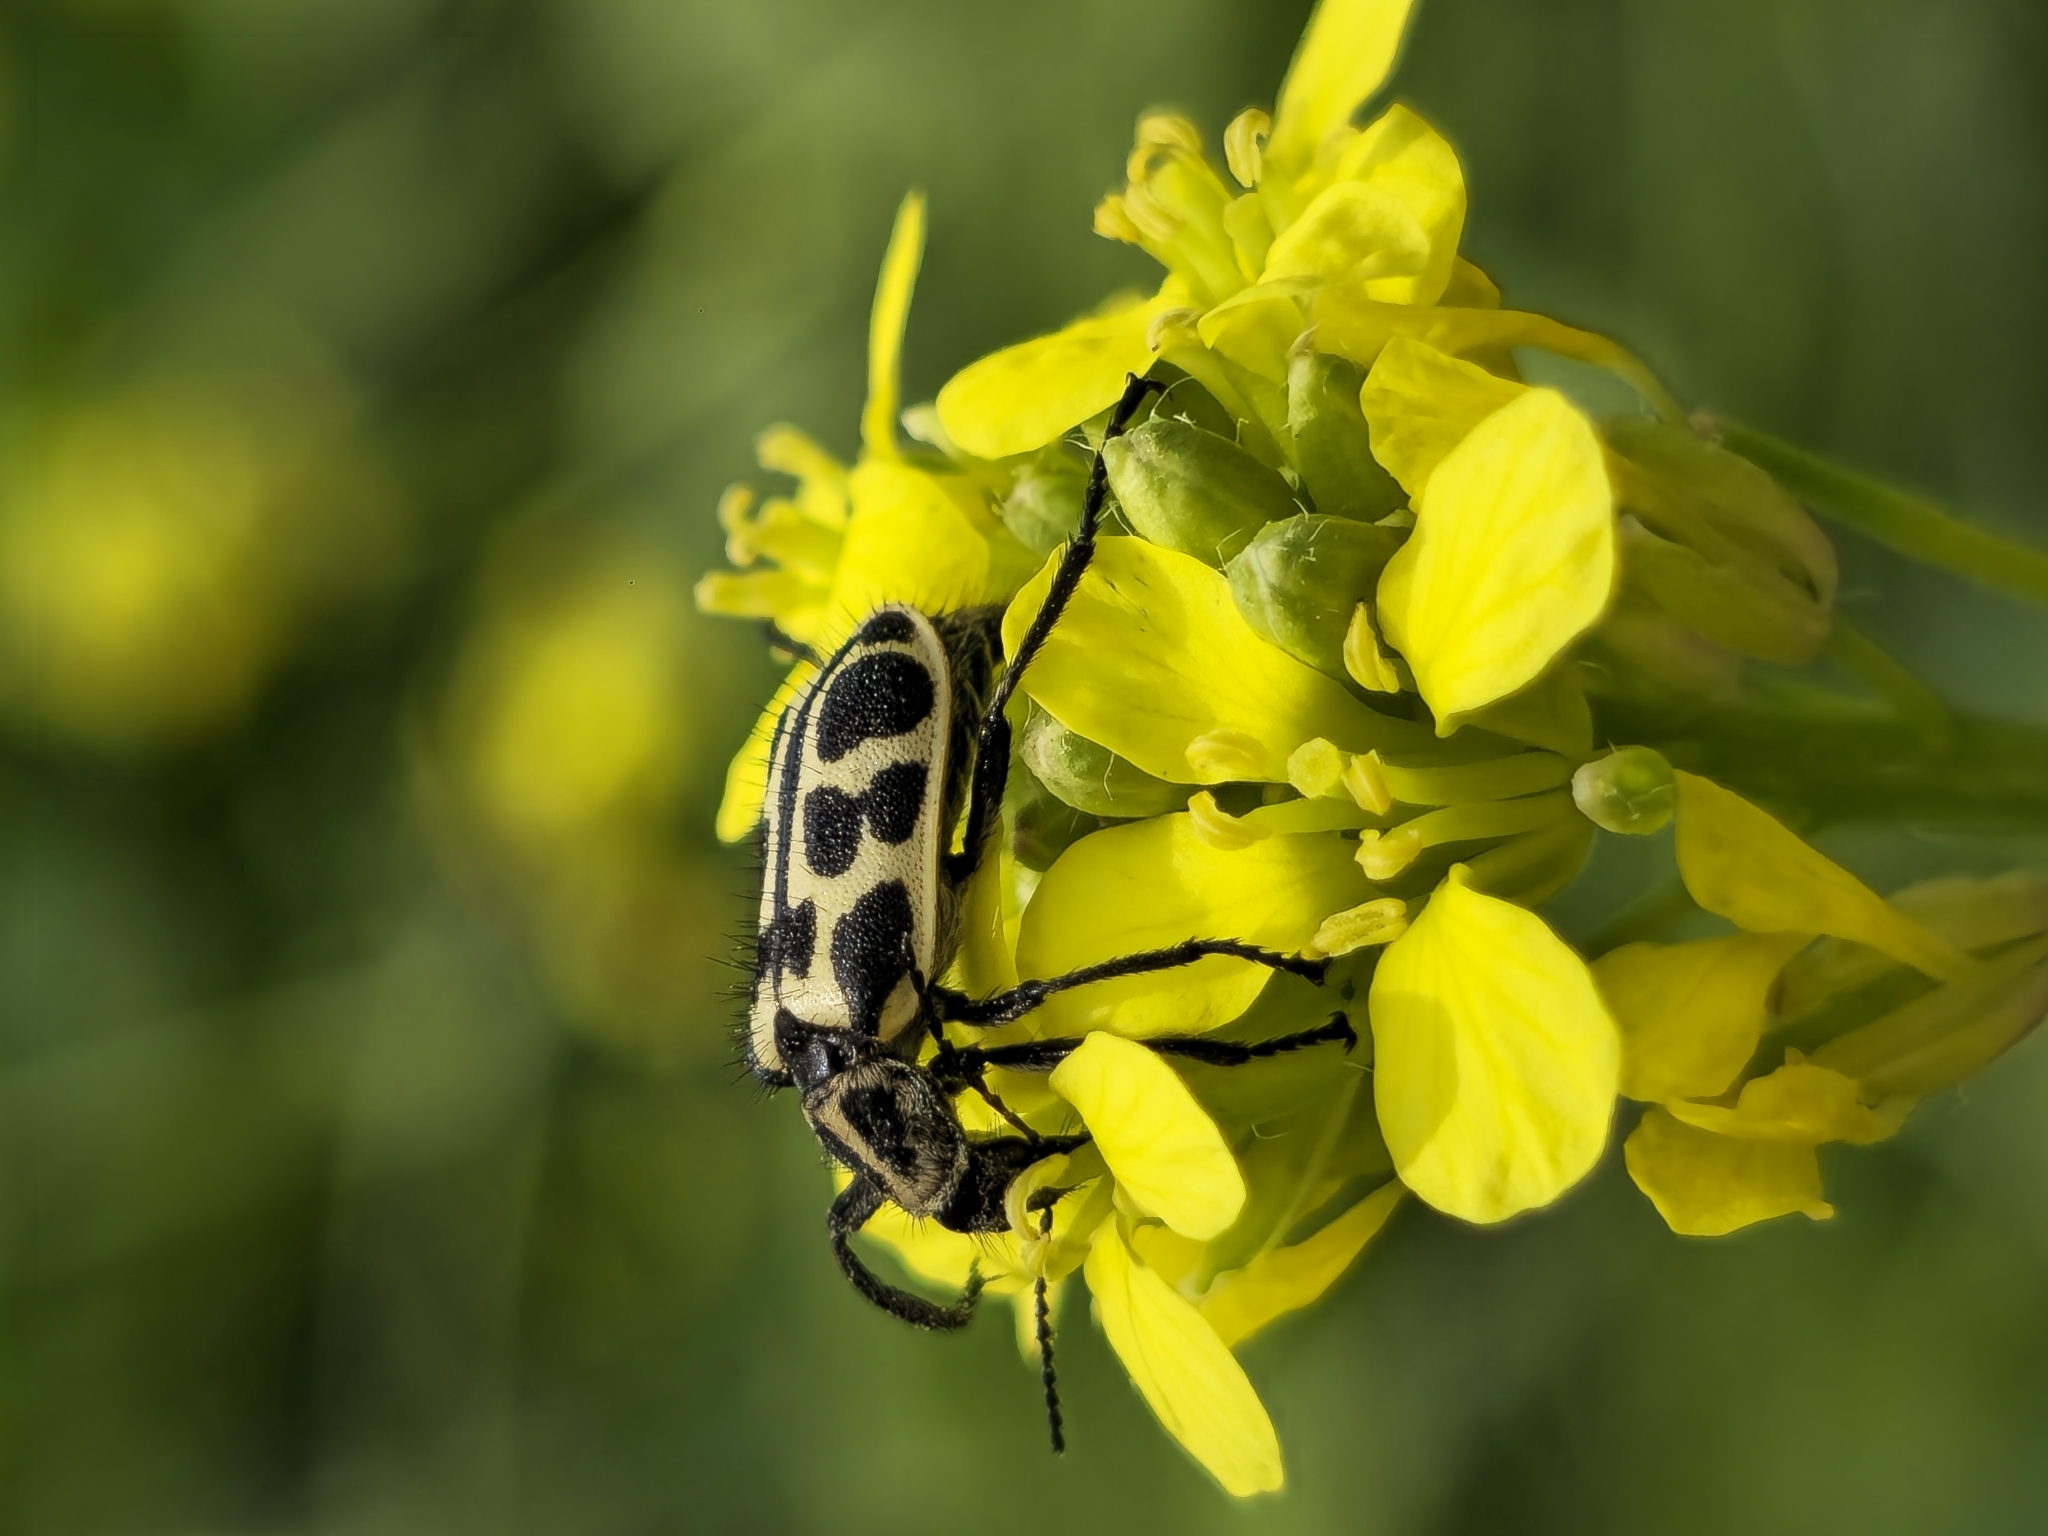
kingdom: Animalia
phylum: Arthropoda
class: Insecta
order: Coleoptera
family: Melyridae
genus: Astylus
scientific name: Astylus atromaculatus
